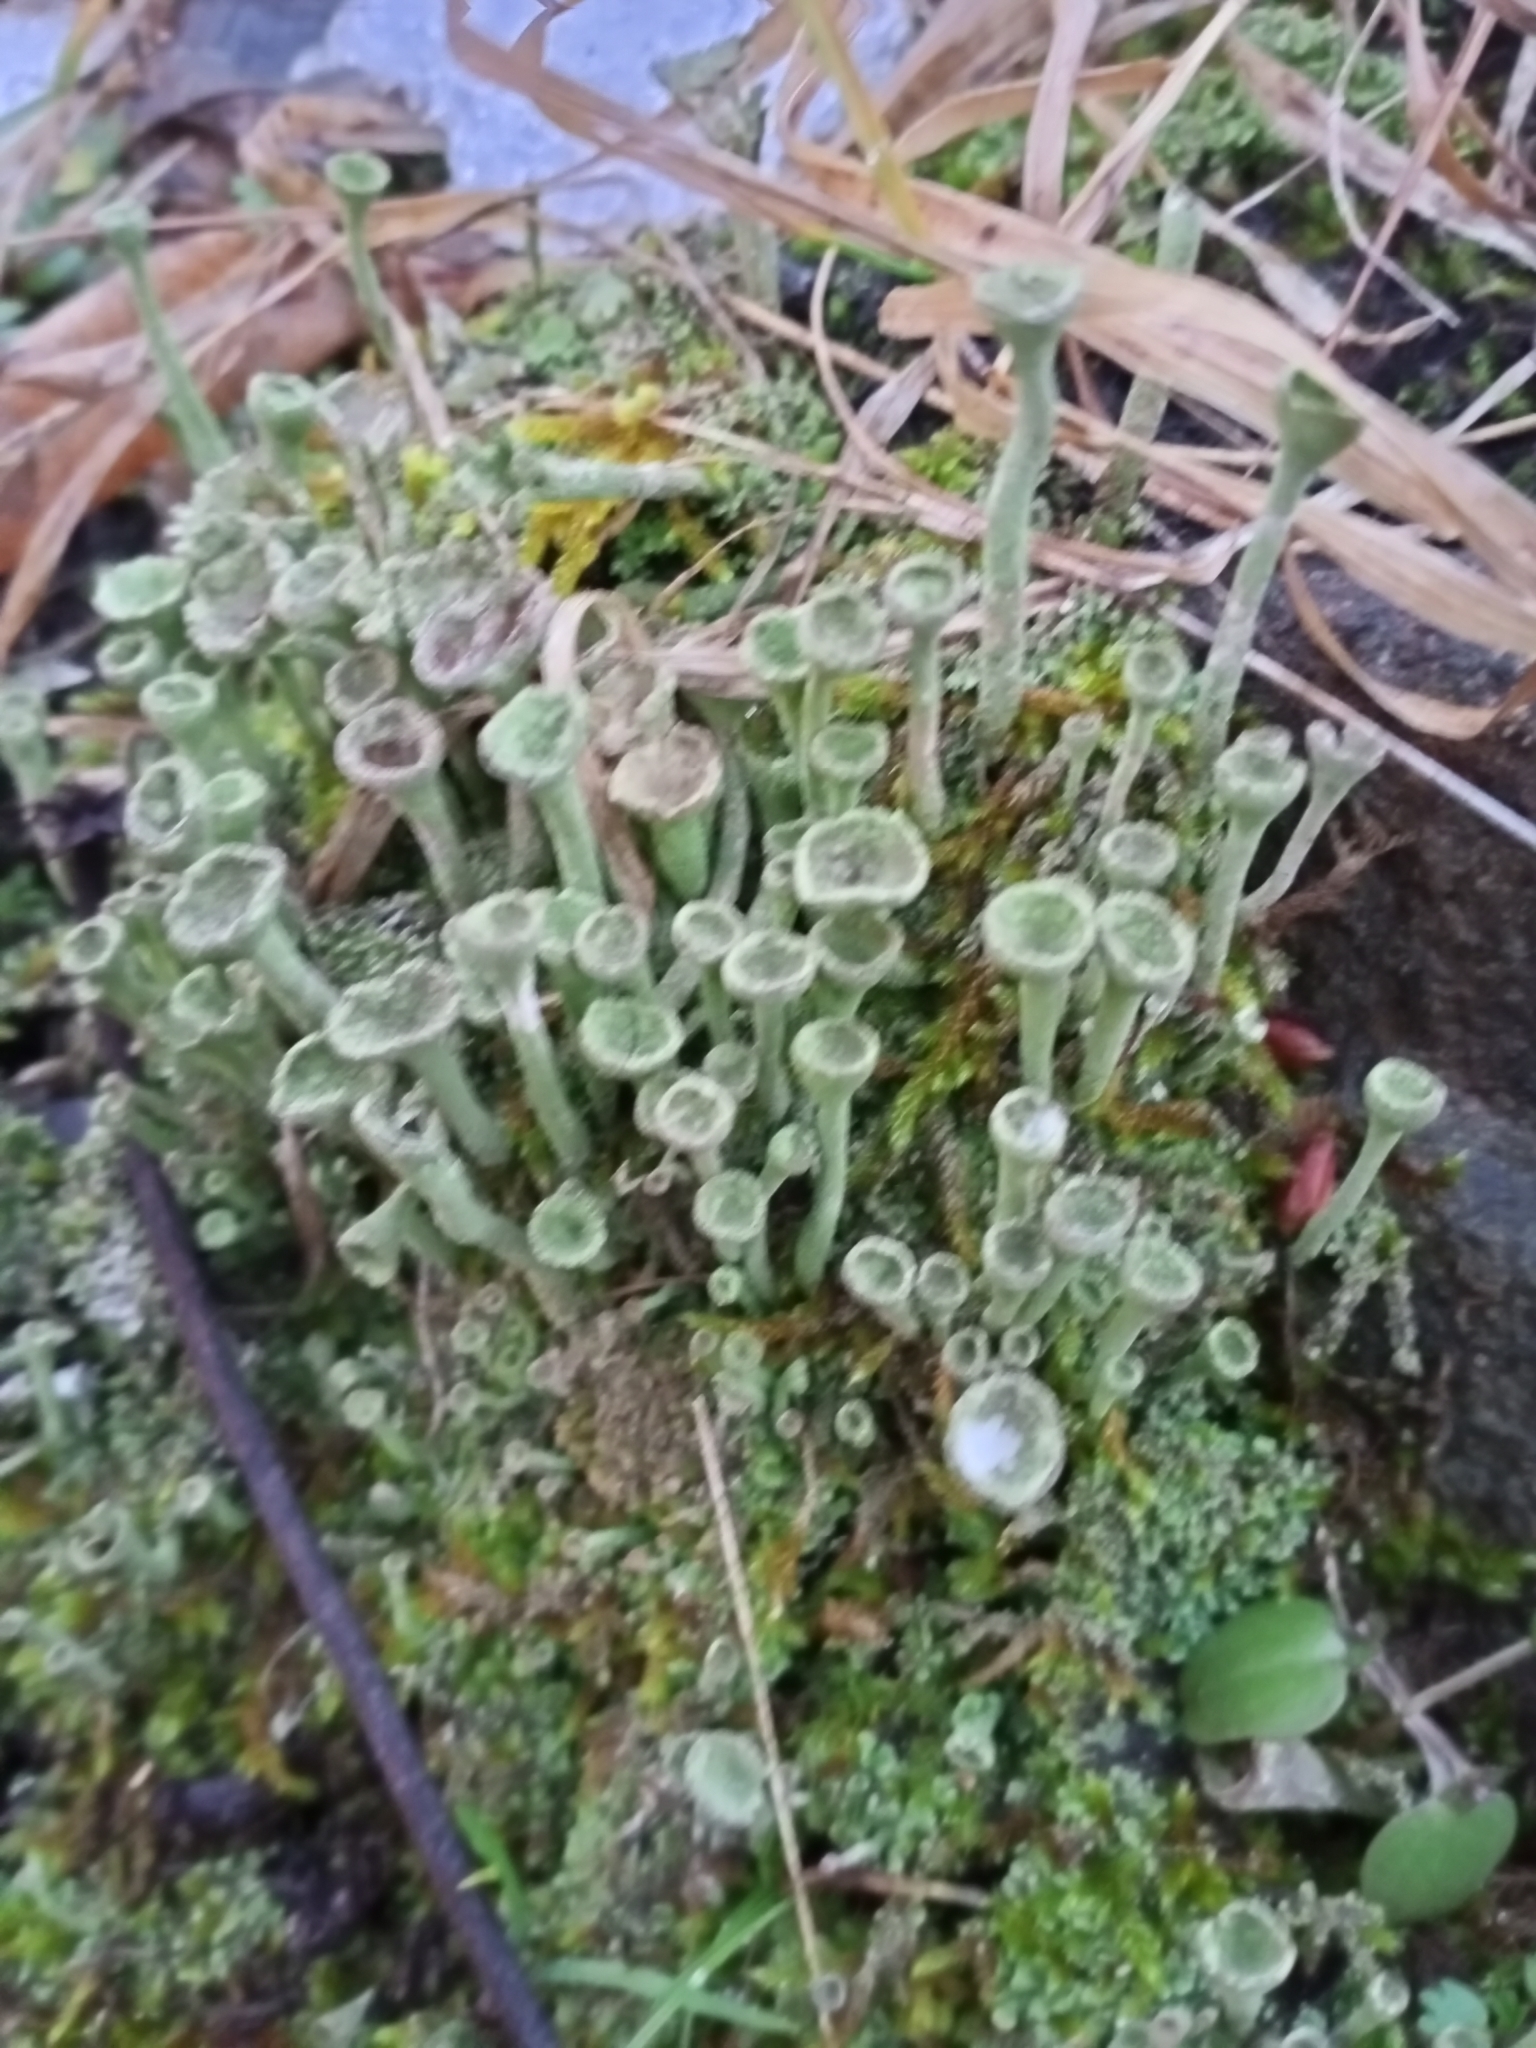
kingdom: Fungi
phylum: Ascomycota
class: Lecanoromycetes
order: Lecanorales
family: Cladoniaceae
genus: Cladonia
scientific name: Cladonia fimbriata
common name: Powdered trumpet lichen
